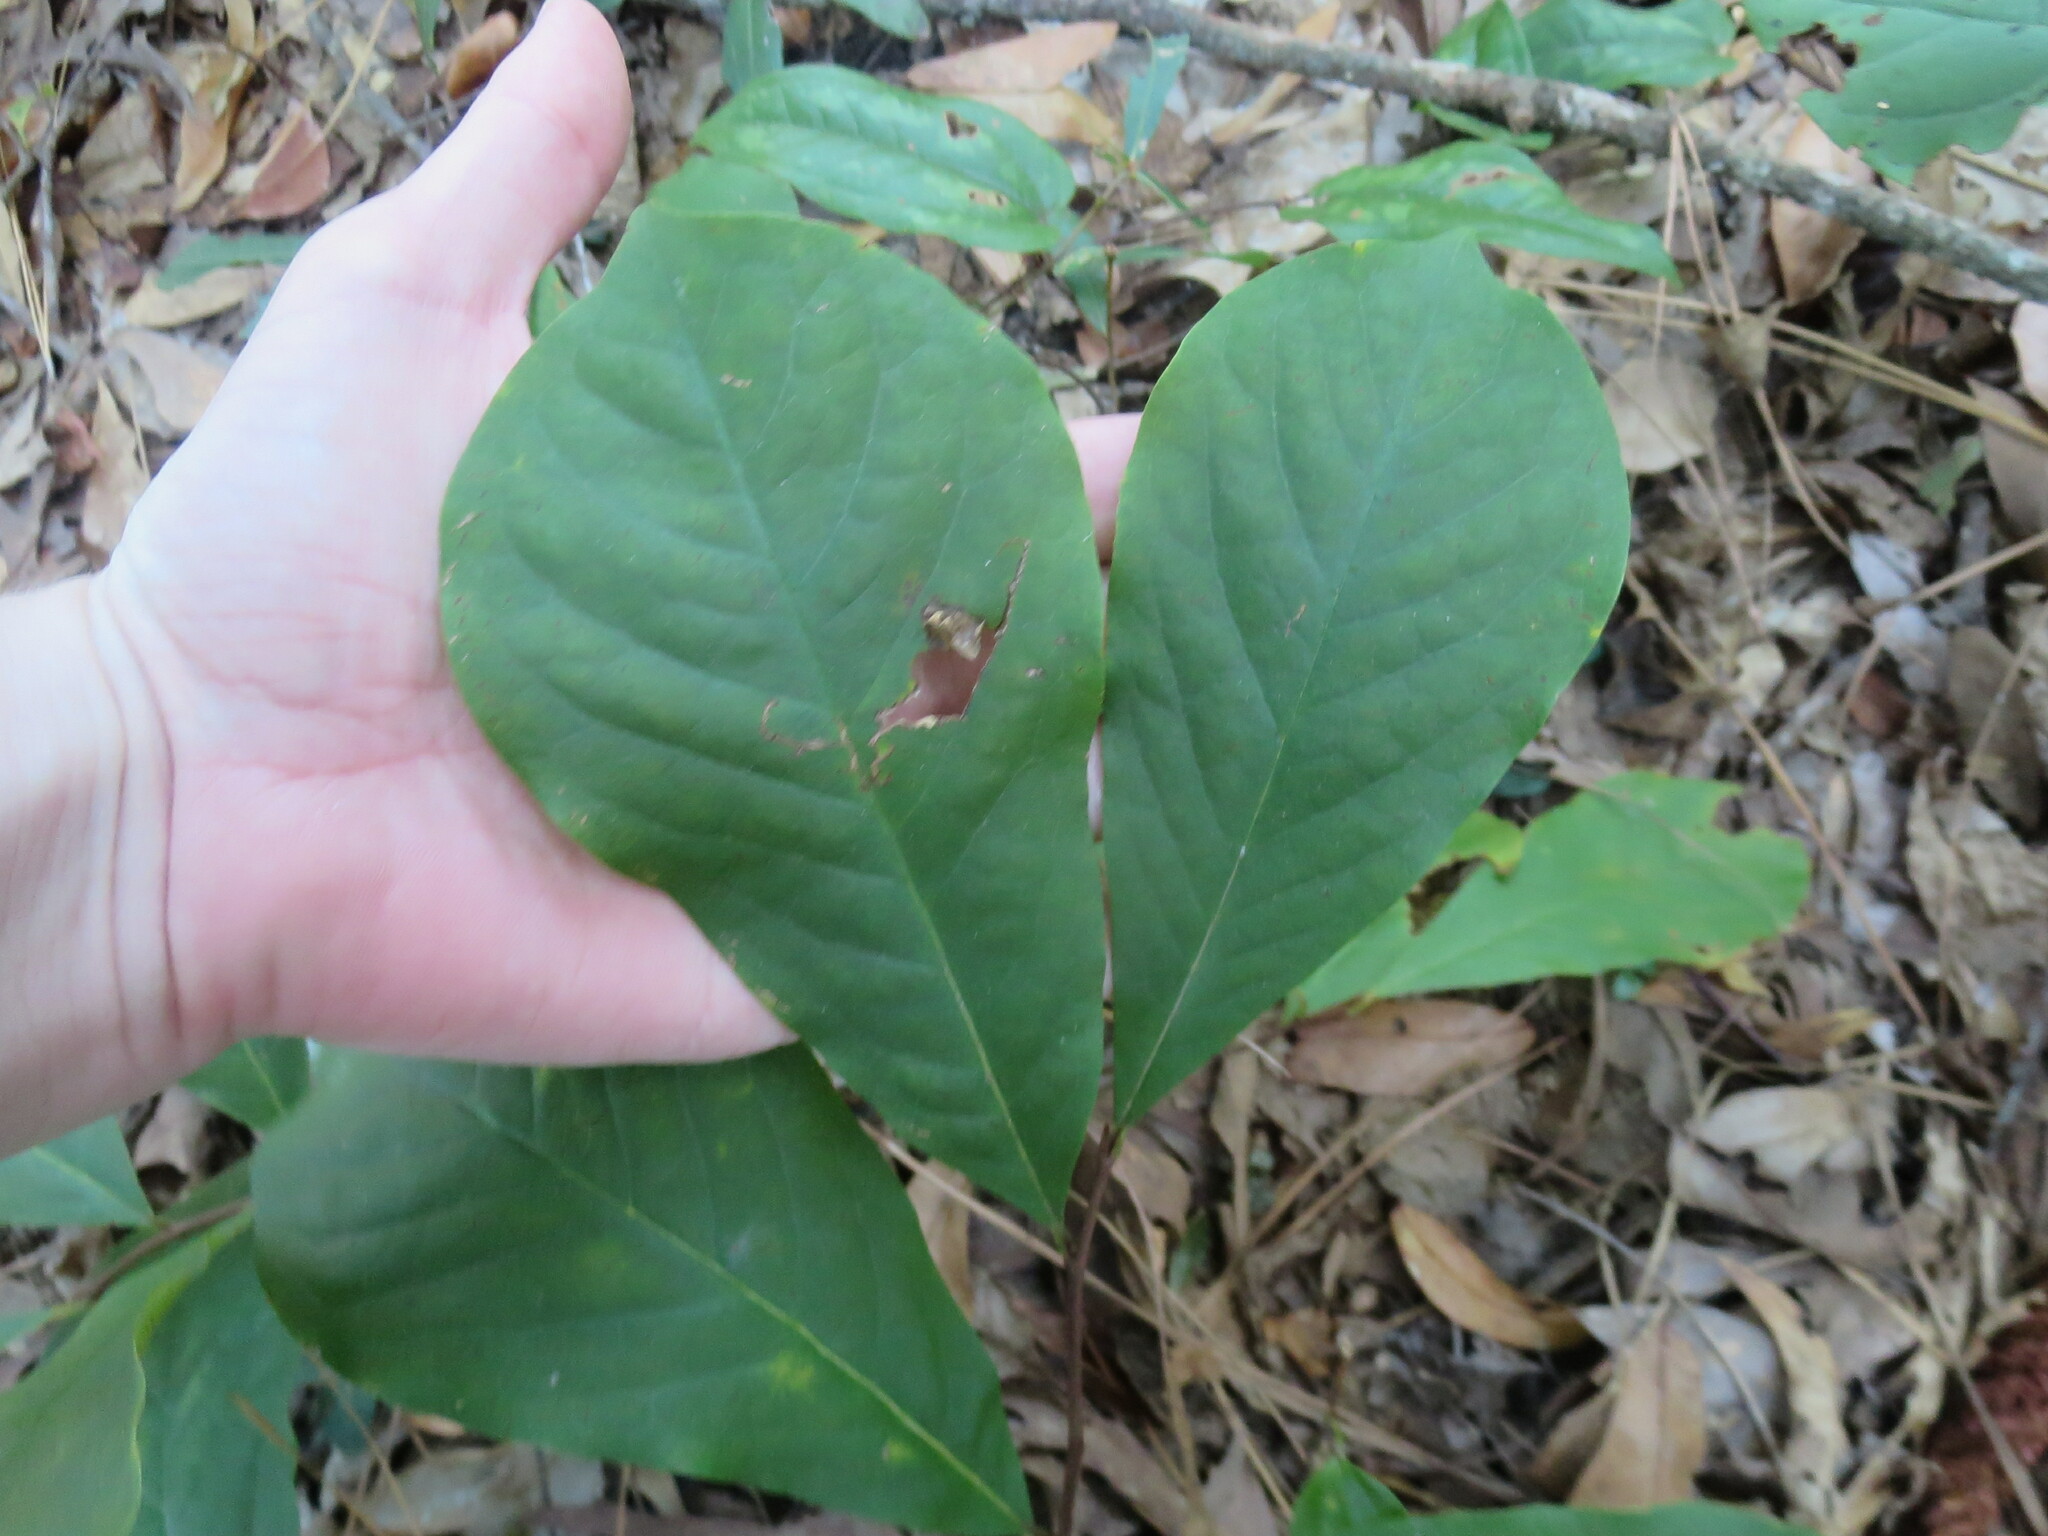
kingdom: Plantae
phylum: Tracheophyta
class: Magnoliopsida
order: Magnoliales
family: Annonaceae
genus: Asimina
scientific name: Asimina parviflora
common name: Dwarf pawpaw
